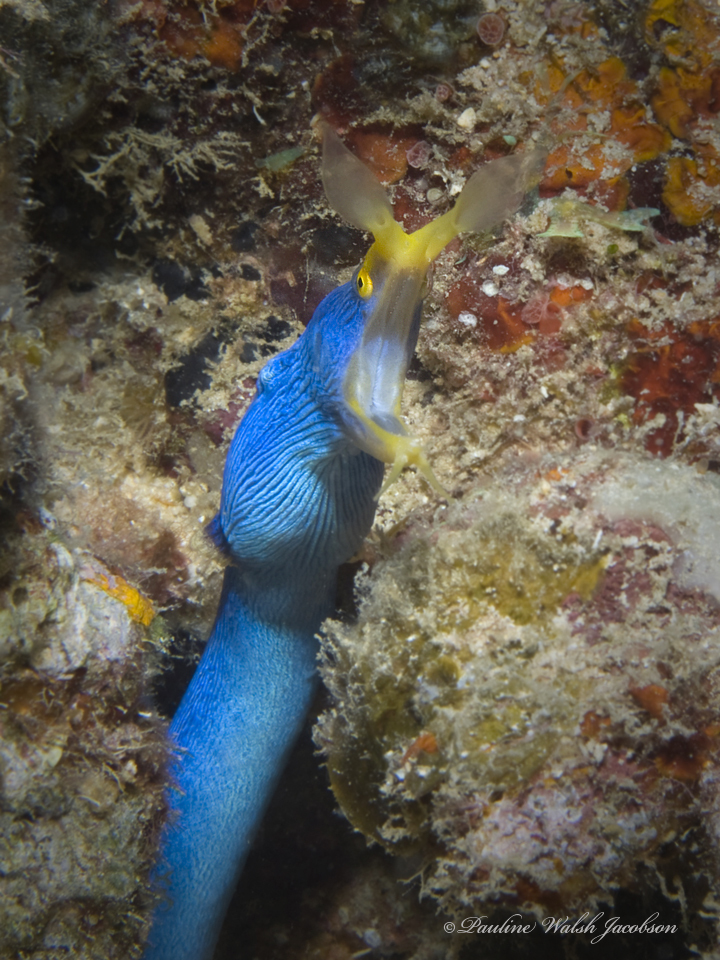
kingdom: Animalia
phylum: Chordata
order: Anguilliformes
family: Muraenidae
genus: Rhinomuraena
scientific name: Rhinomuraena quaesita
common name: Ribbon eel
